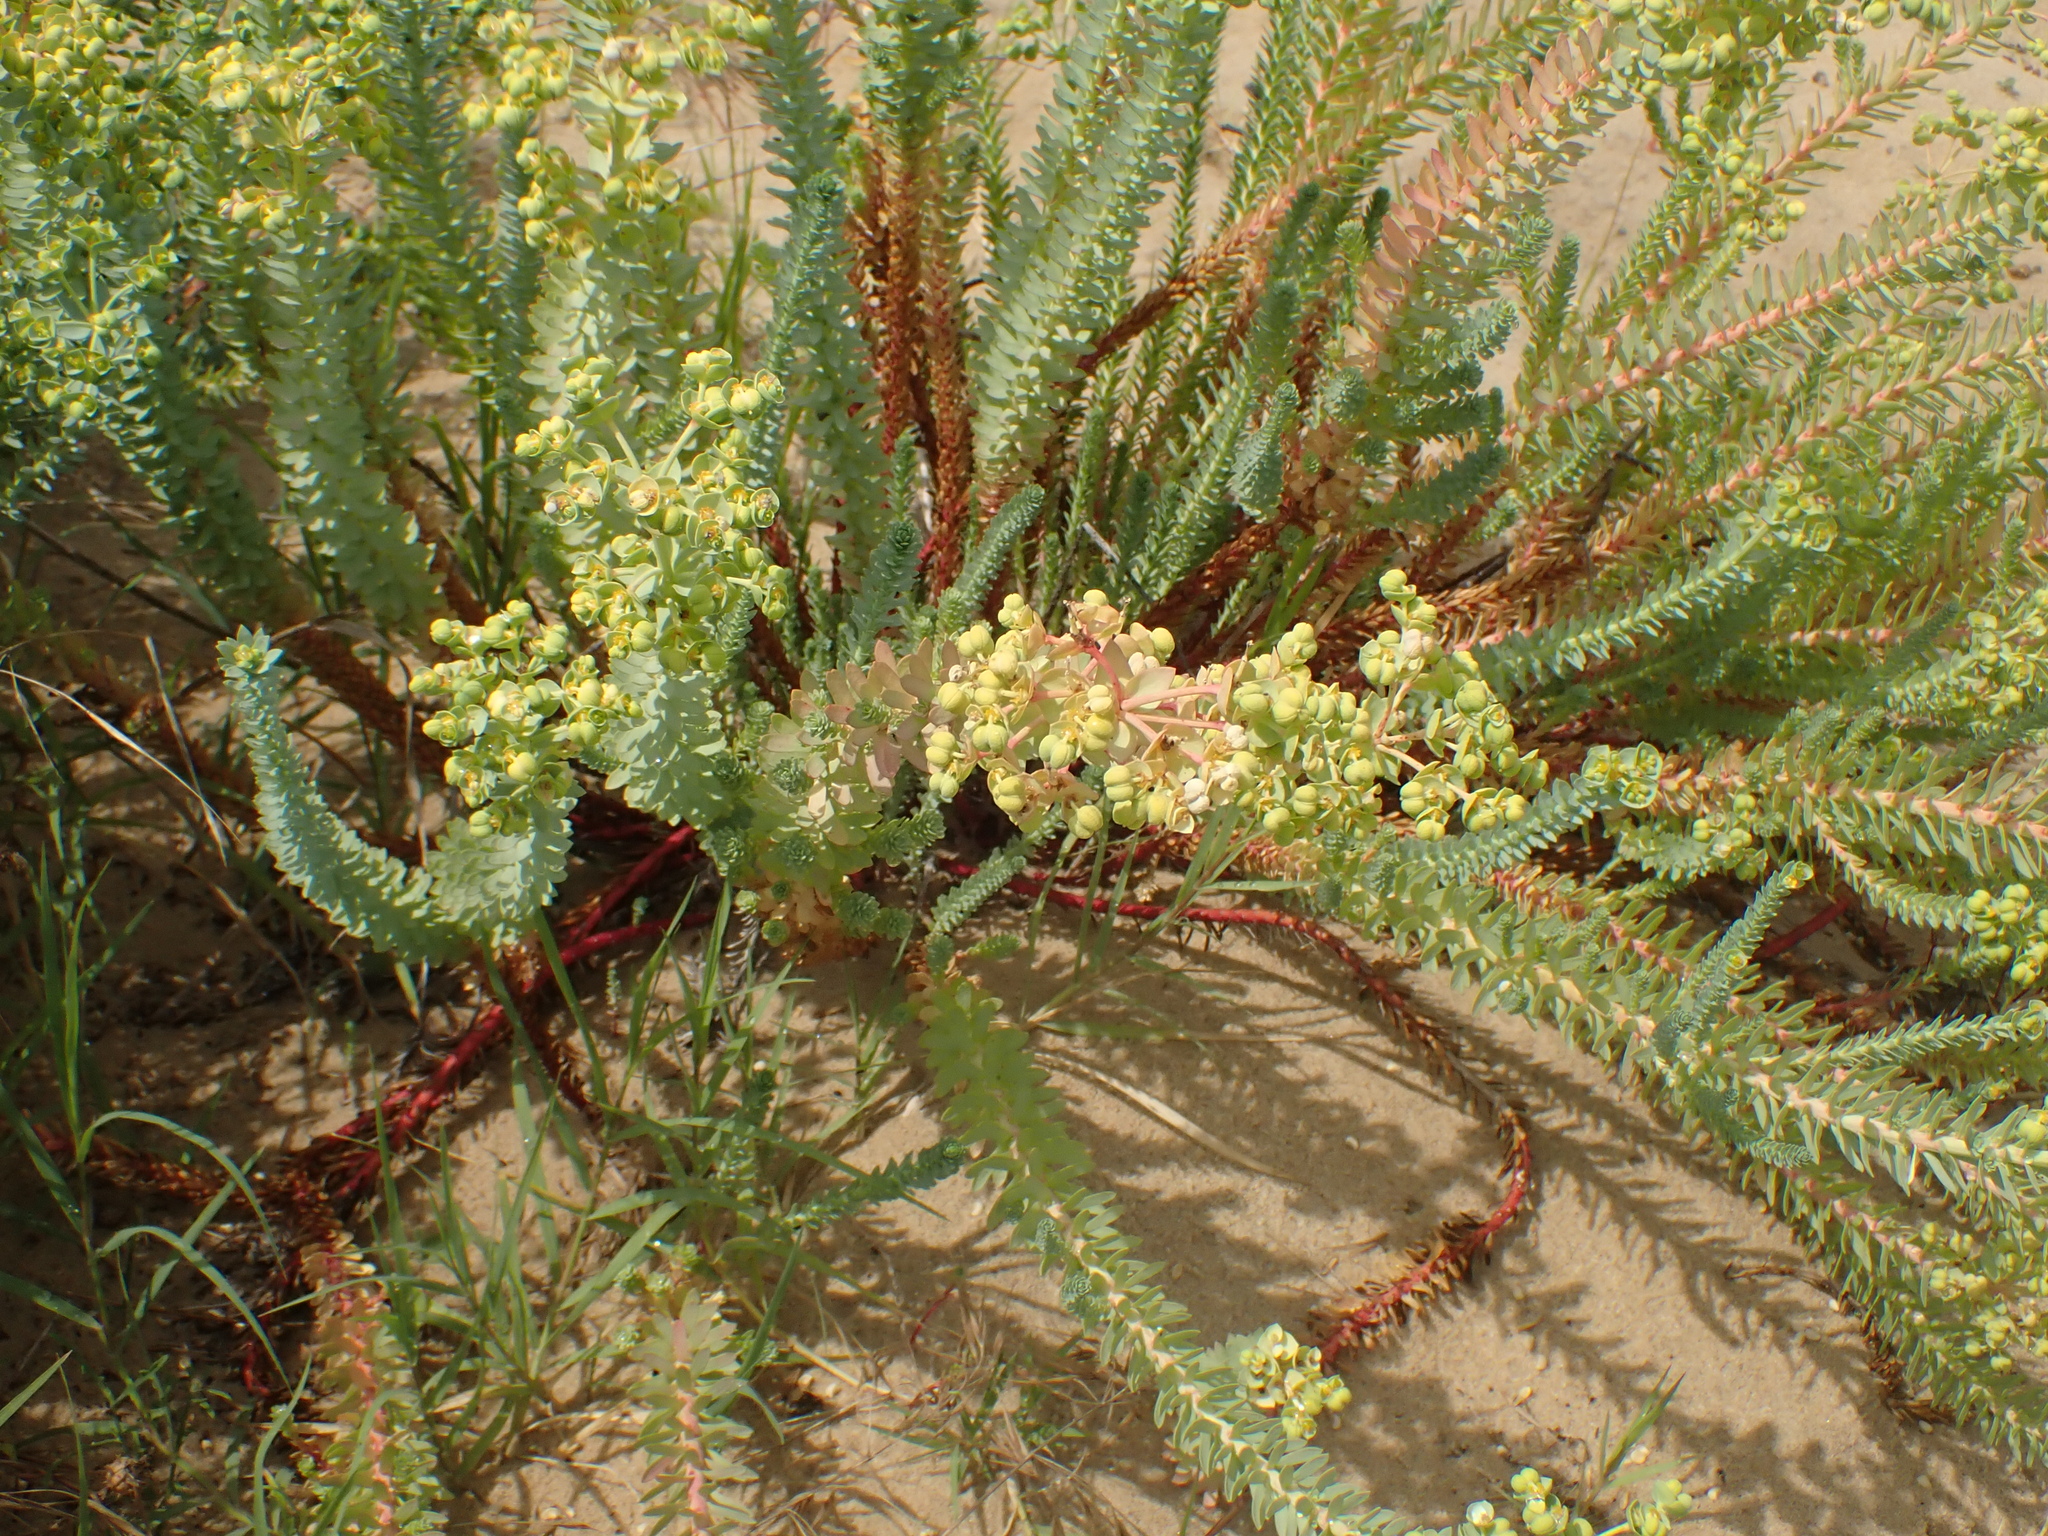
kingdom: Plantae
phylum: Tracheophyta
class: Magnoliopsida
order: Malpighiales
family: Euphorbiaceae
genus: Euphorbia
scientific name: Euphorbia paralias
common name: Sea spurge
